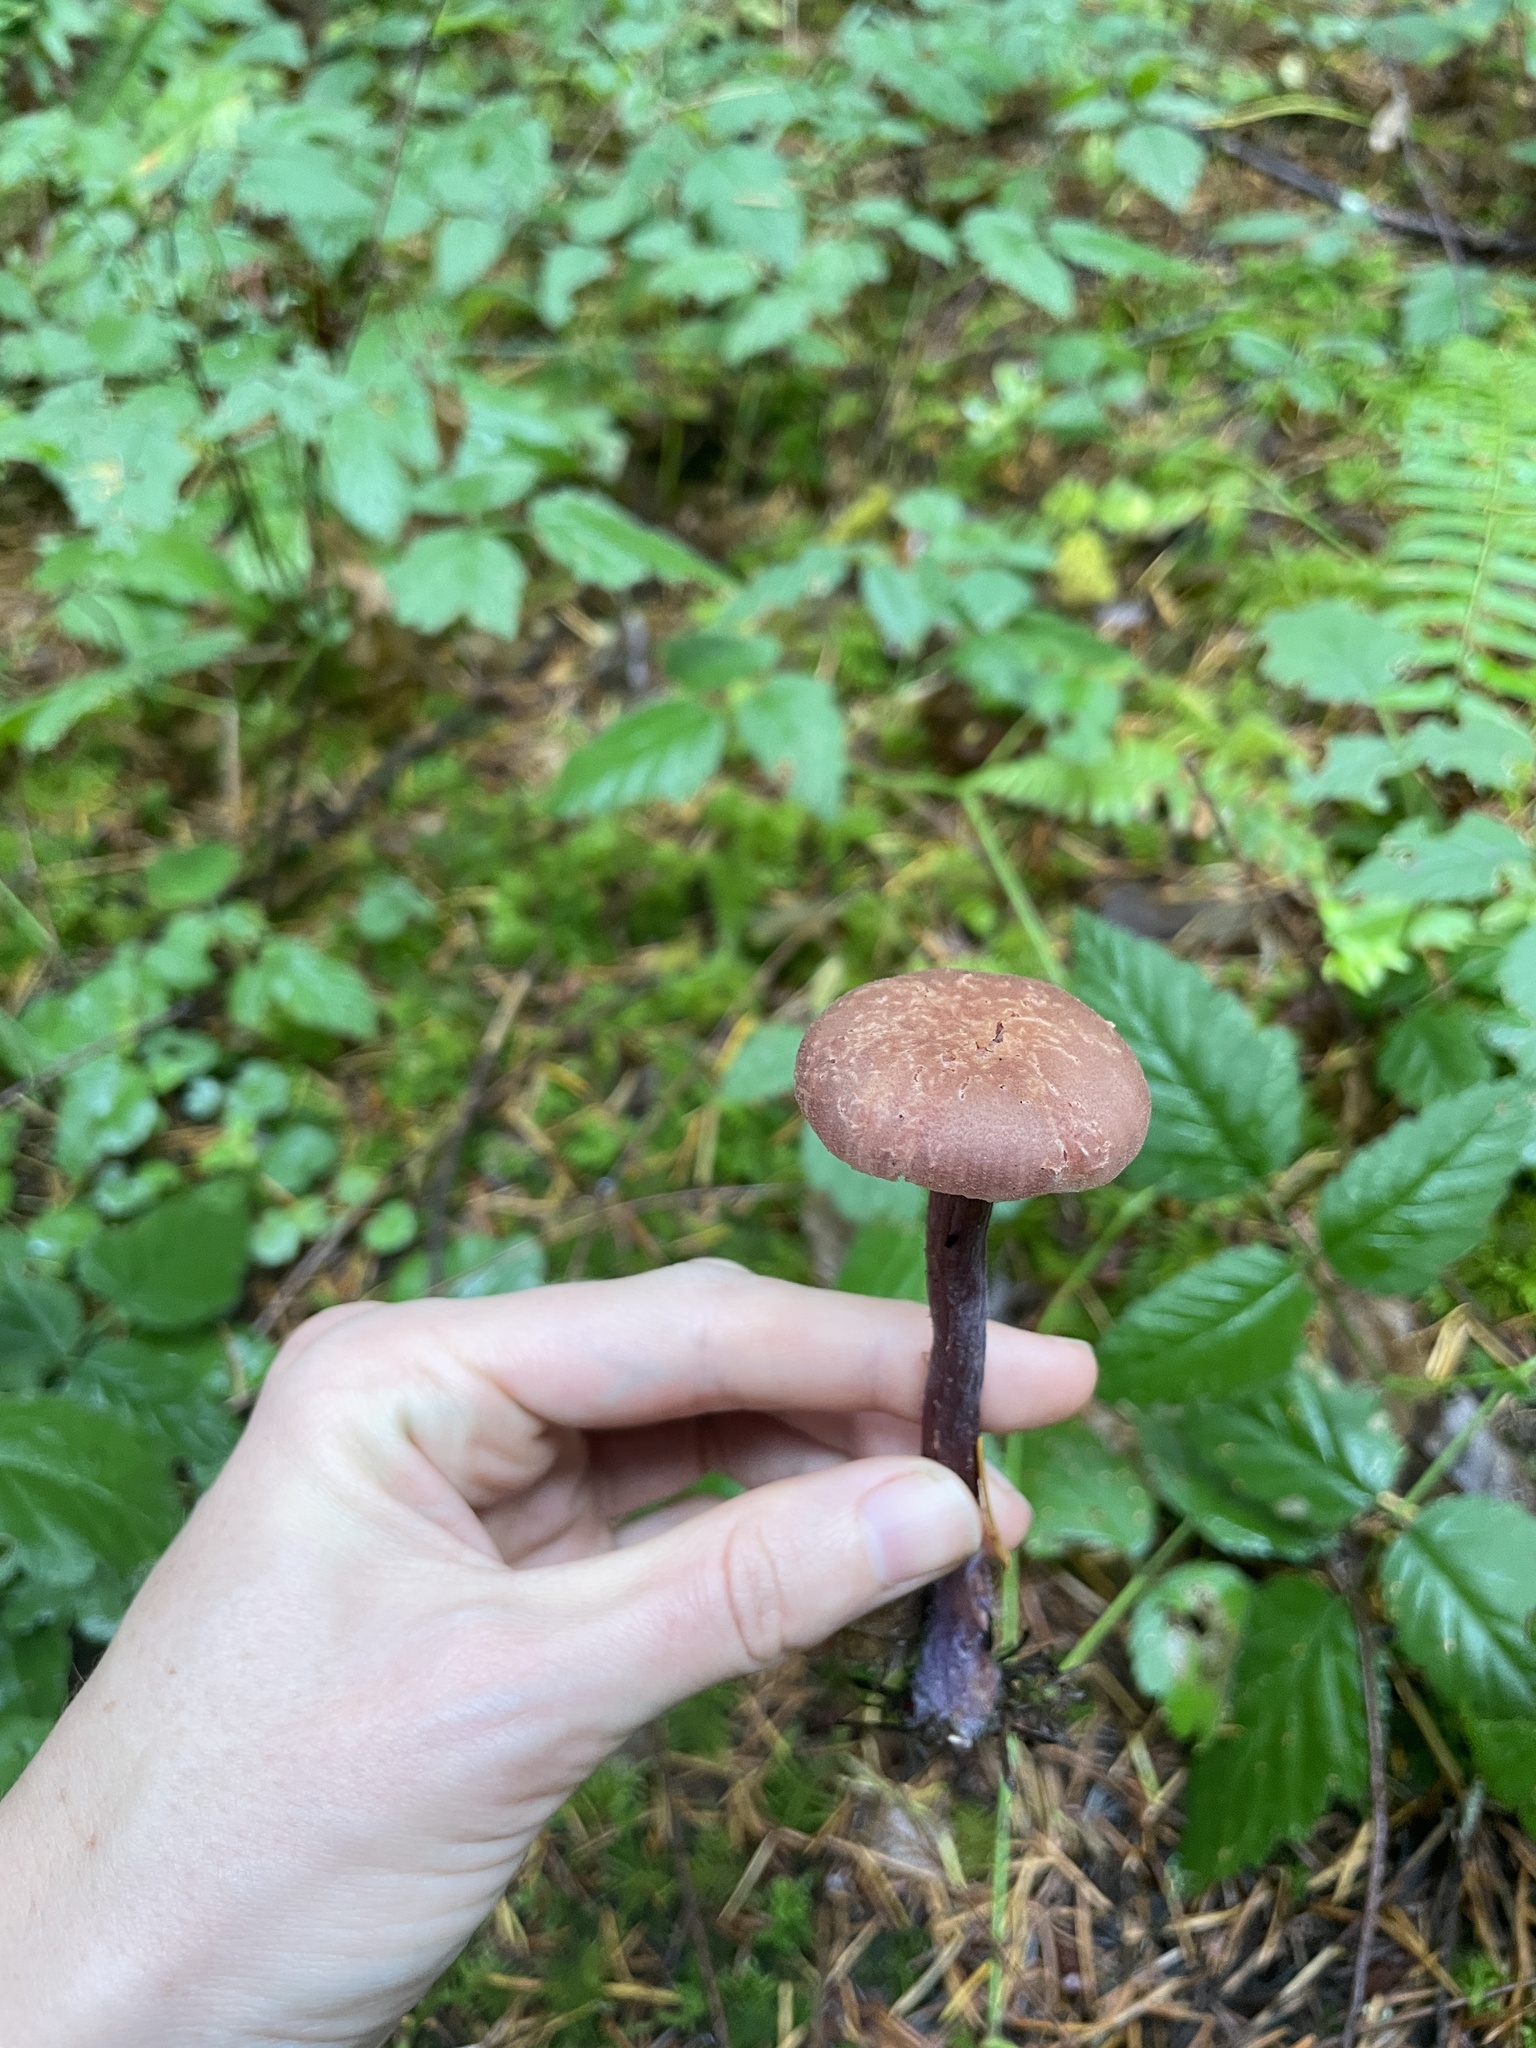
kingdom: Fungi
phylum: Basidiomycota
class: Agaricomycetes
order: Agaricales
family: Hydnangiaceae
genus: Laccaria
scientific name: Laccaria amethysteo-occidentalis
